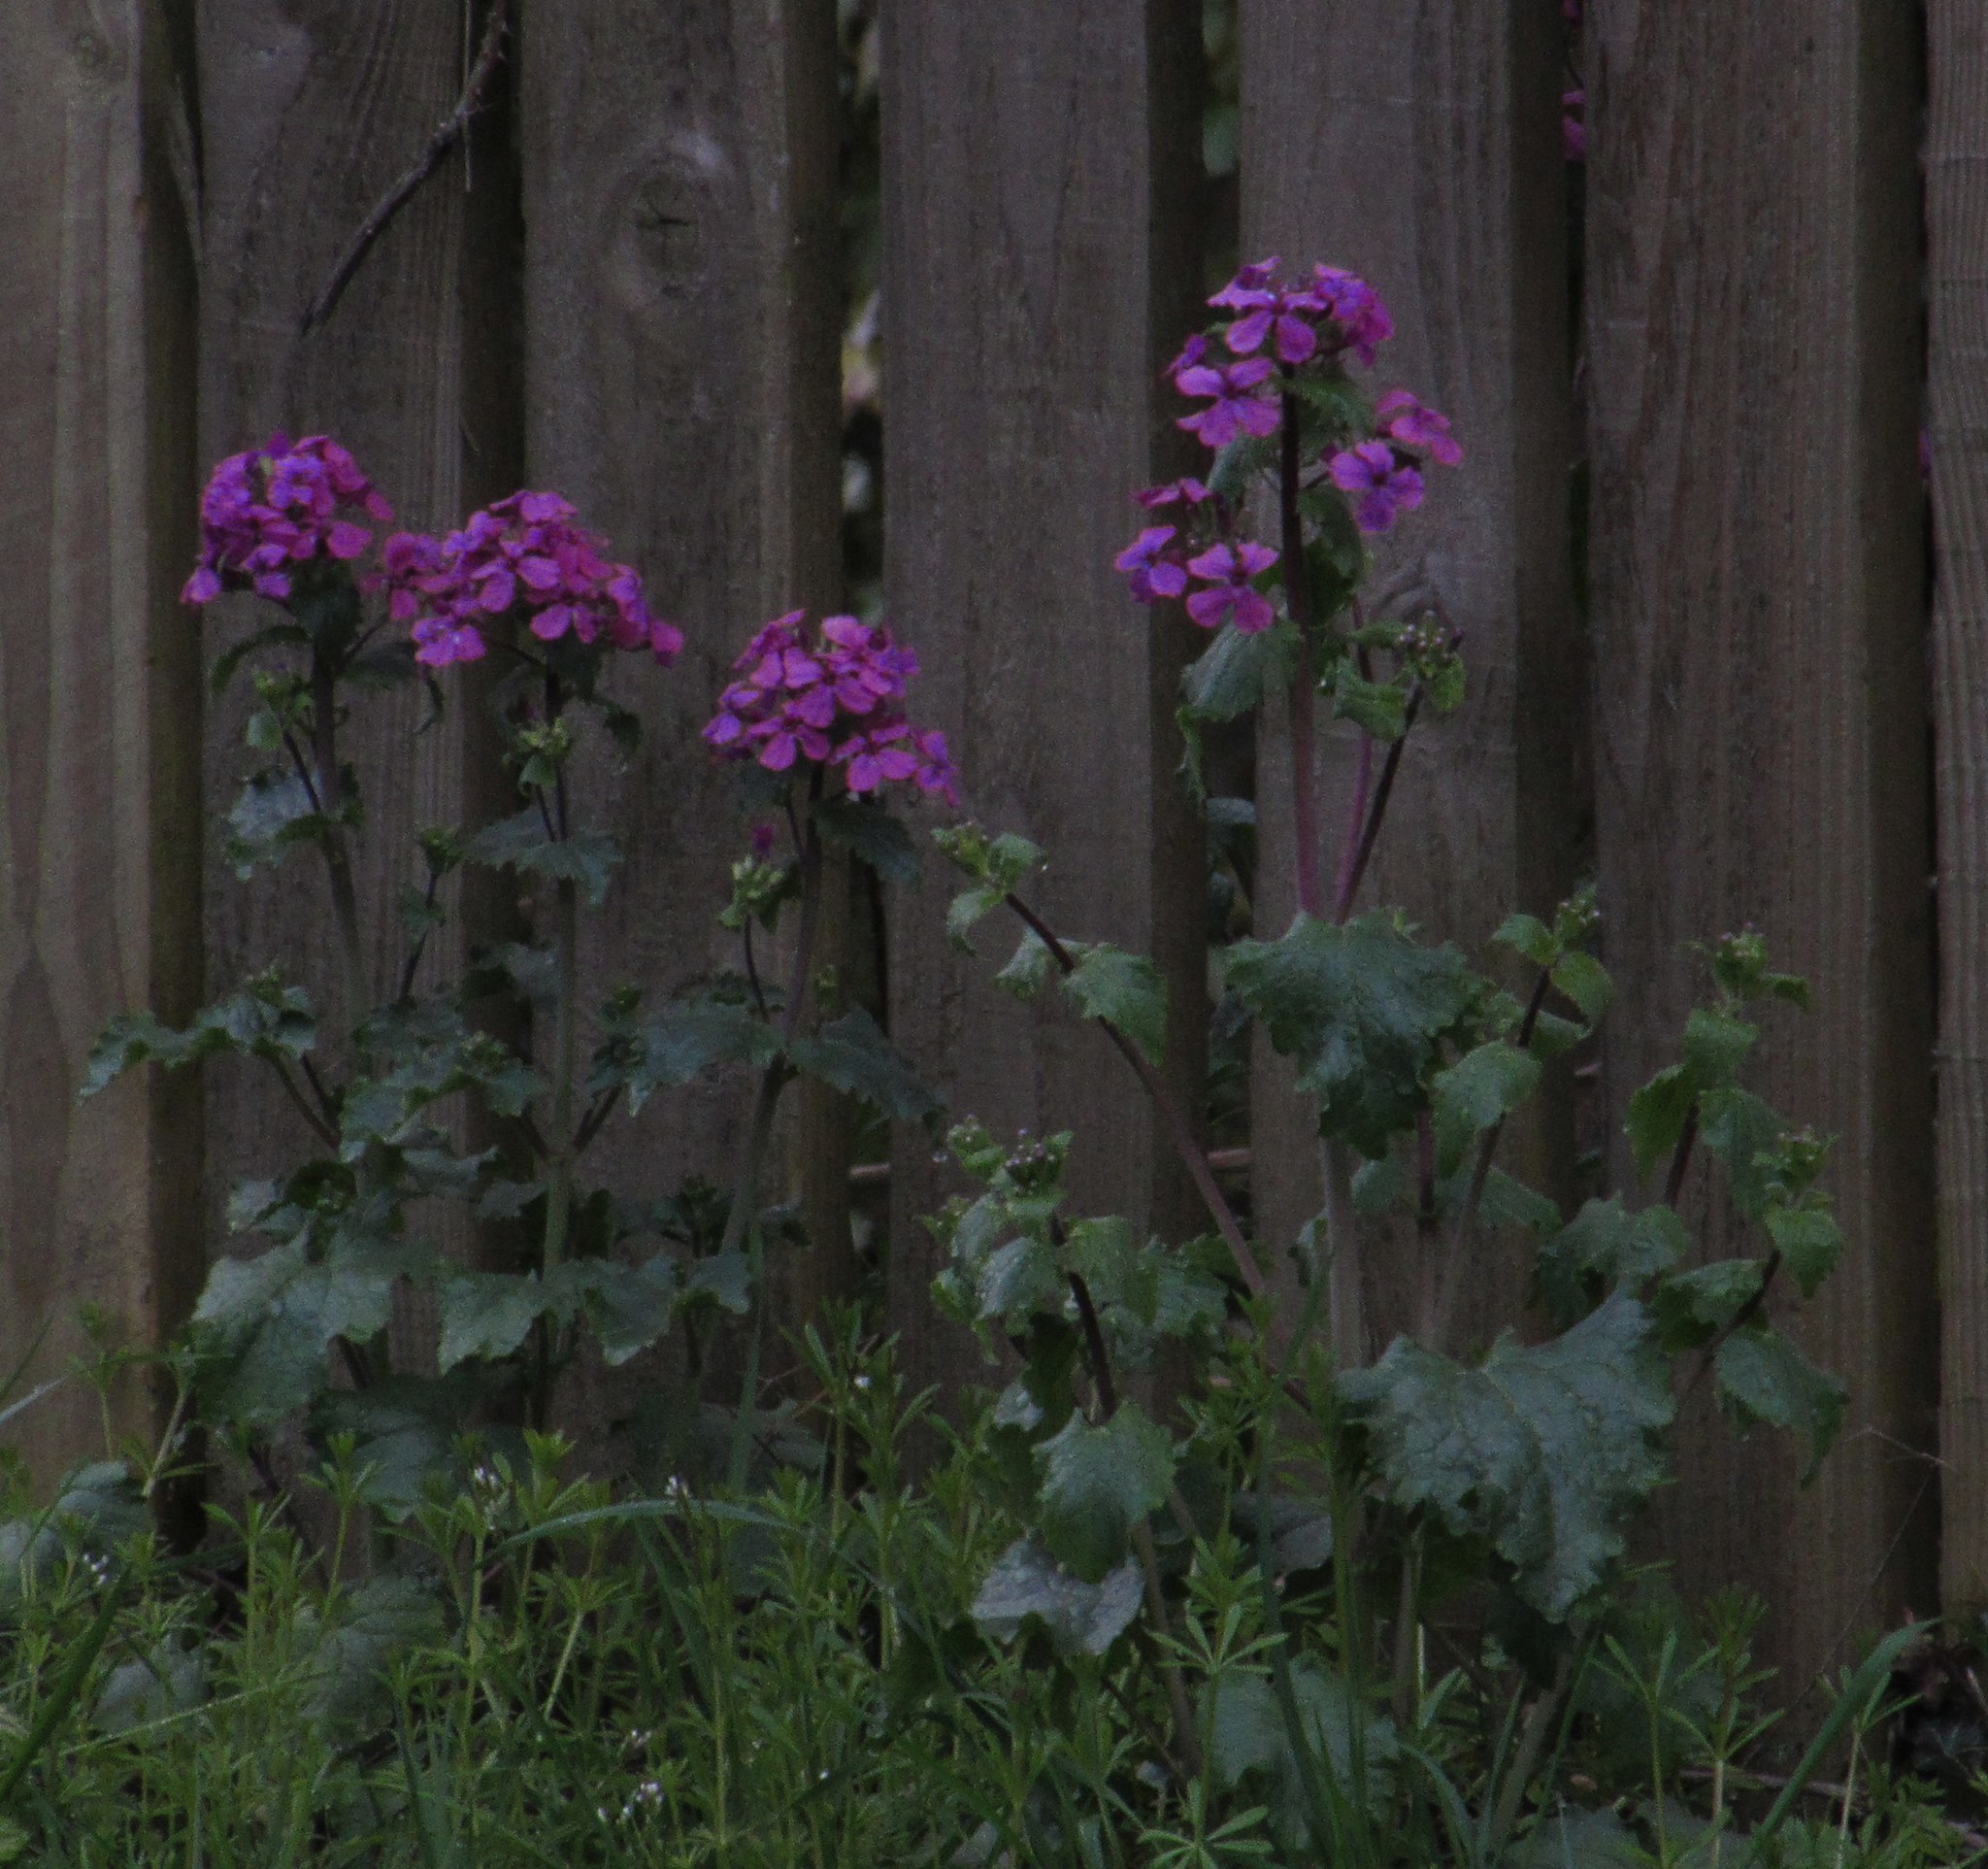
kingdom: Plantae
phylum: Tracheophyta
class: Magnoliopsida
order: Brassicales
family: Brassicaceae
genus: Lunaria
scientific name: Lunaria annua
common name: Honesty
